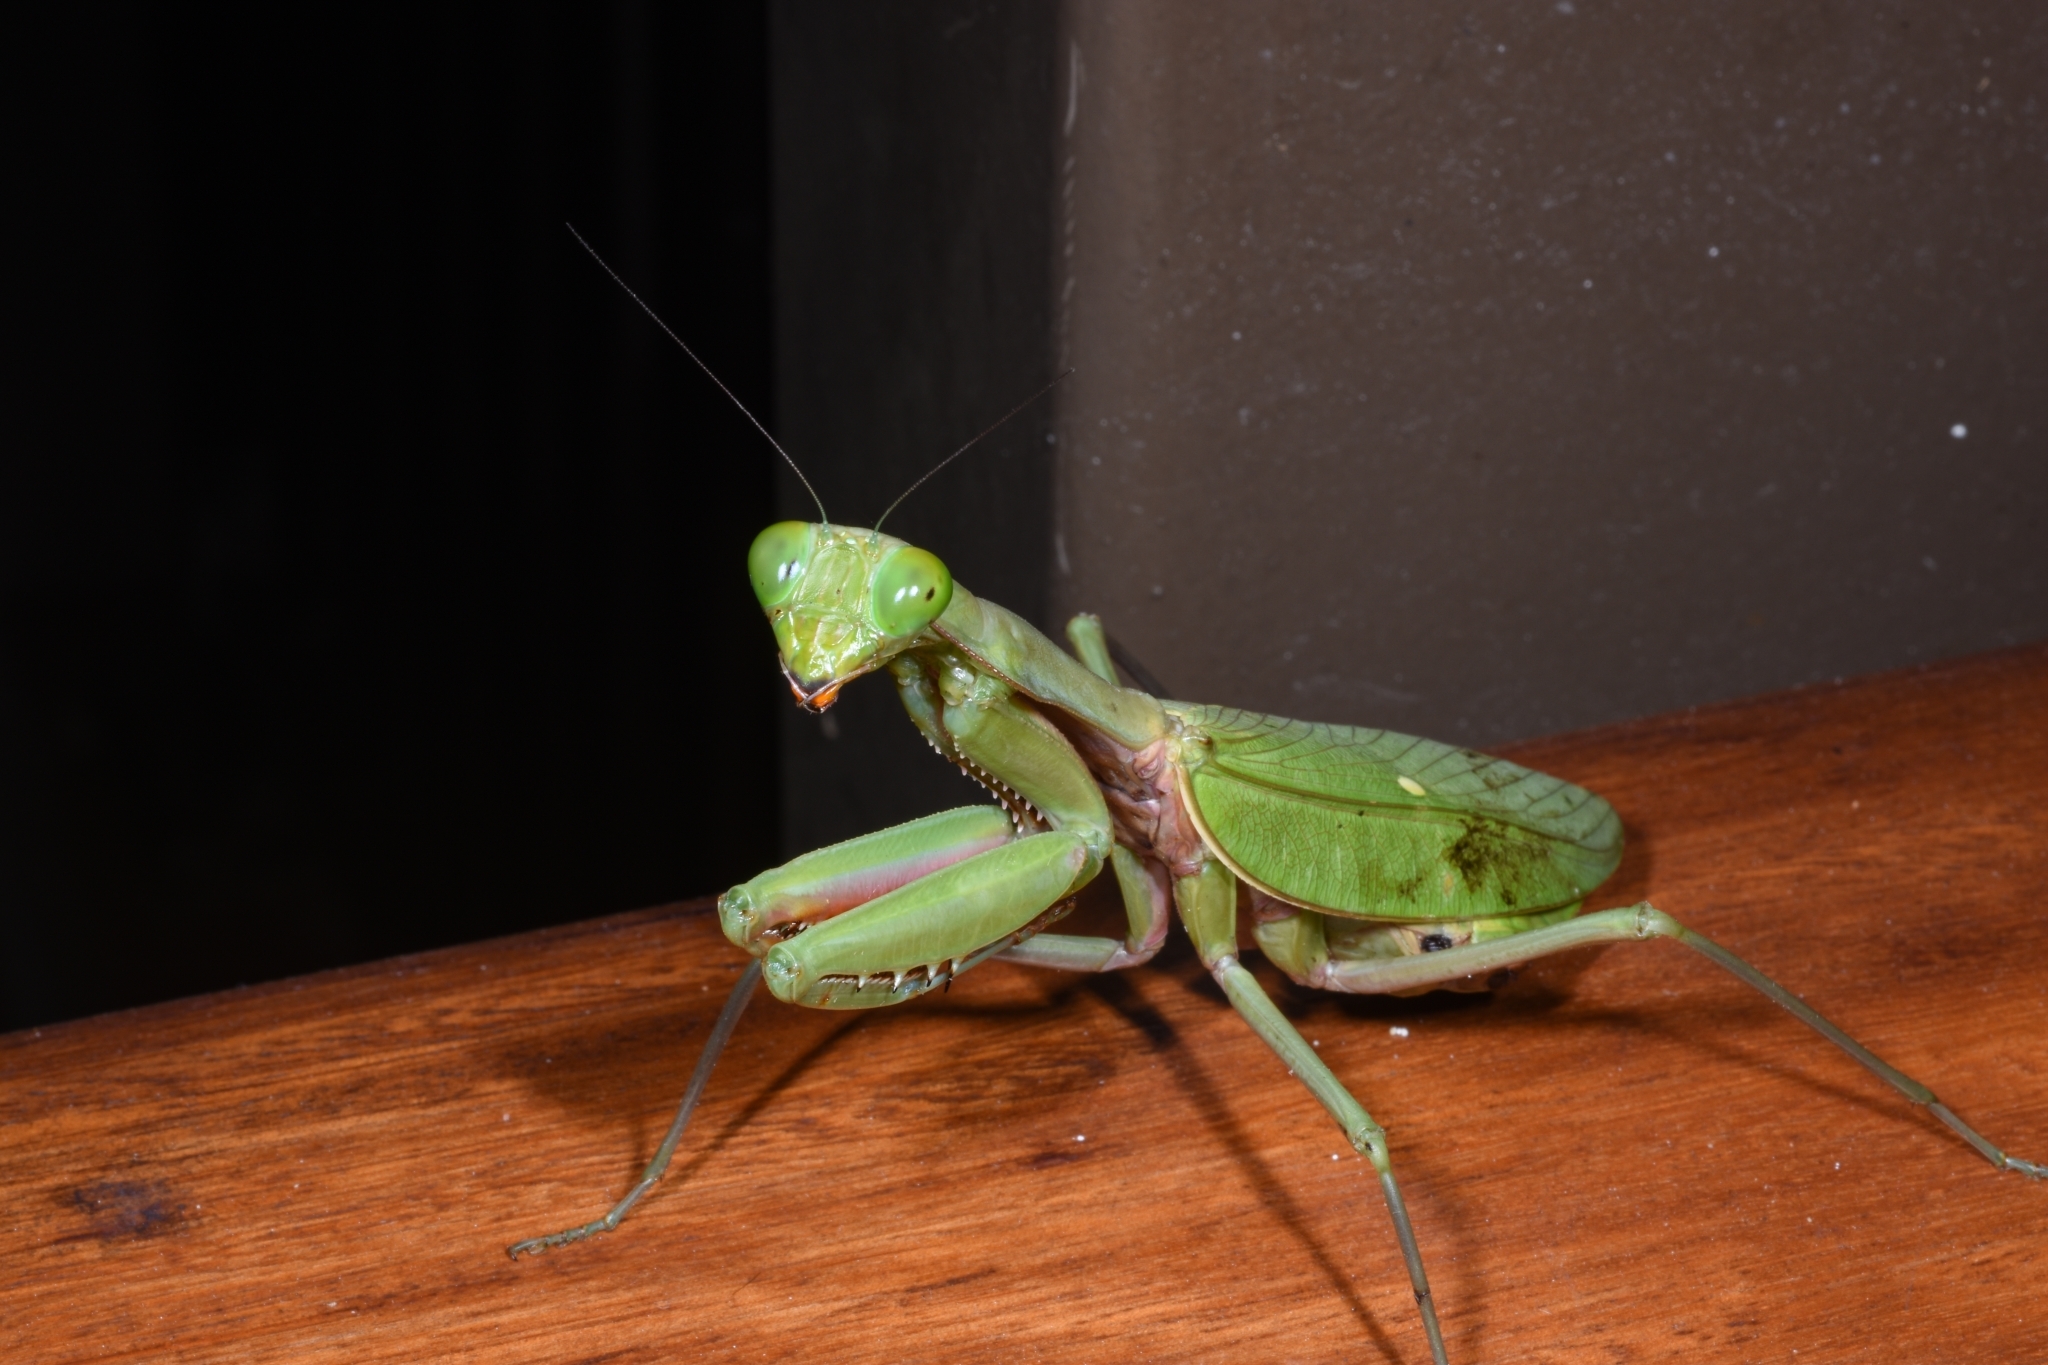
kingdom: Animalia
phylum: Arthropoda
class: Insecta
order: Mantodea
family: Mantidae
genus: Hierodula
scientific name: Hierodula majuscula
